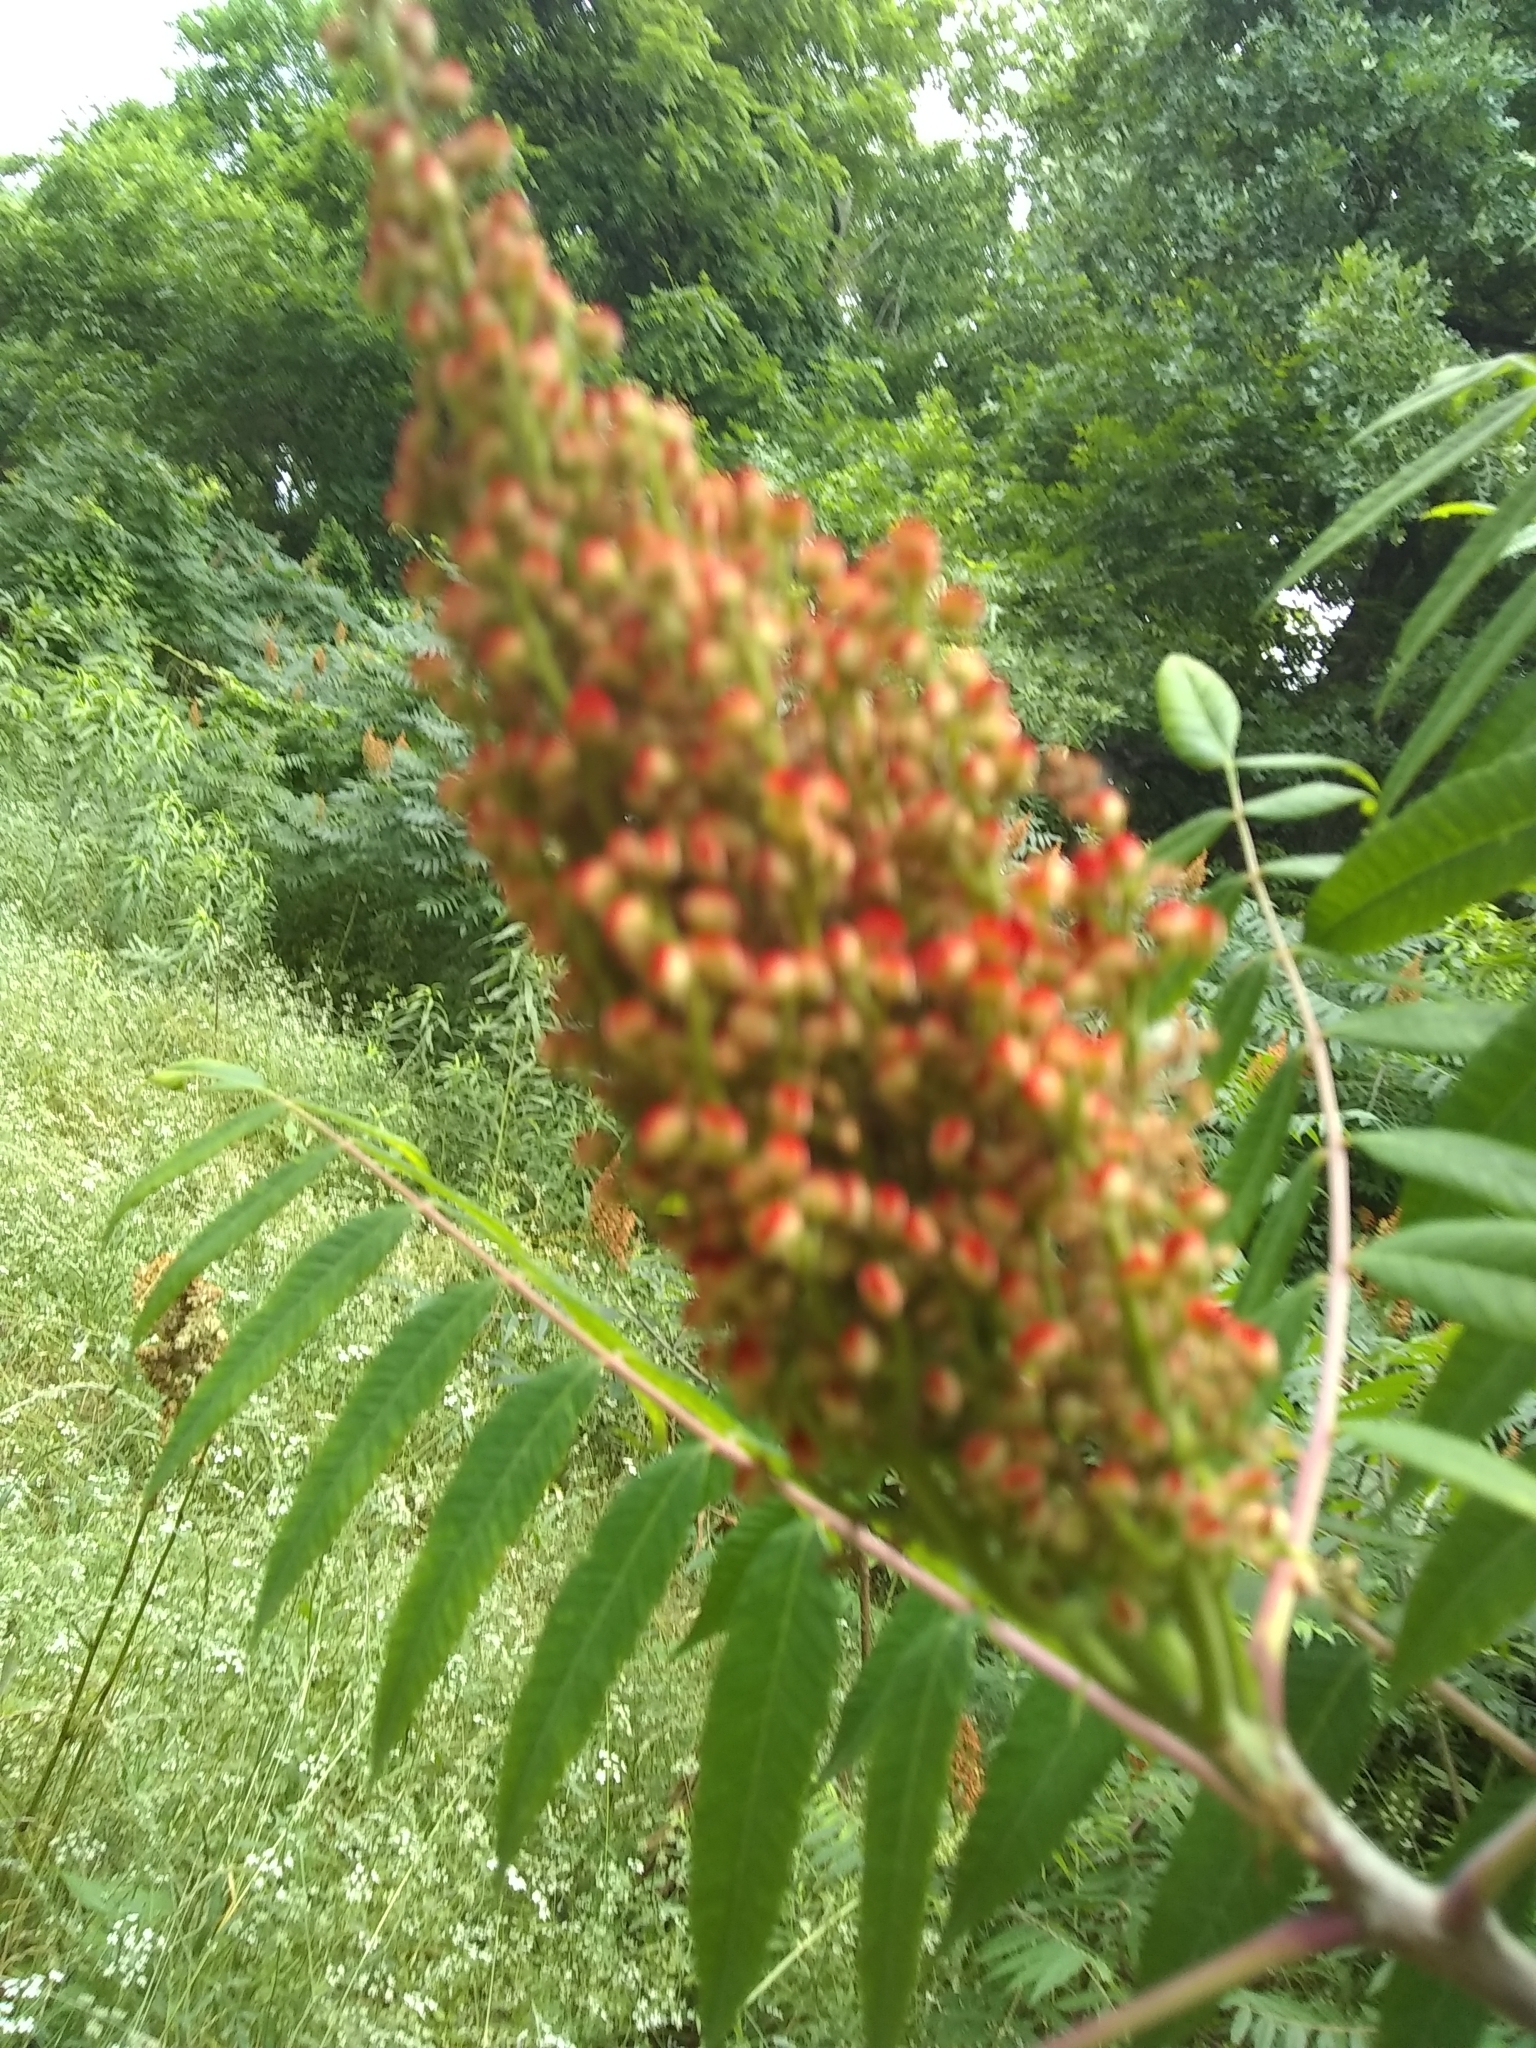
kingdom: Plantae
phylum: Tracheophyta
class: Magnoliopsida
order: Sapindales
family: Anacardiaceae
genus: Rhus
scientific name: Rhus glabra
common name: Scarlet sumac
